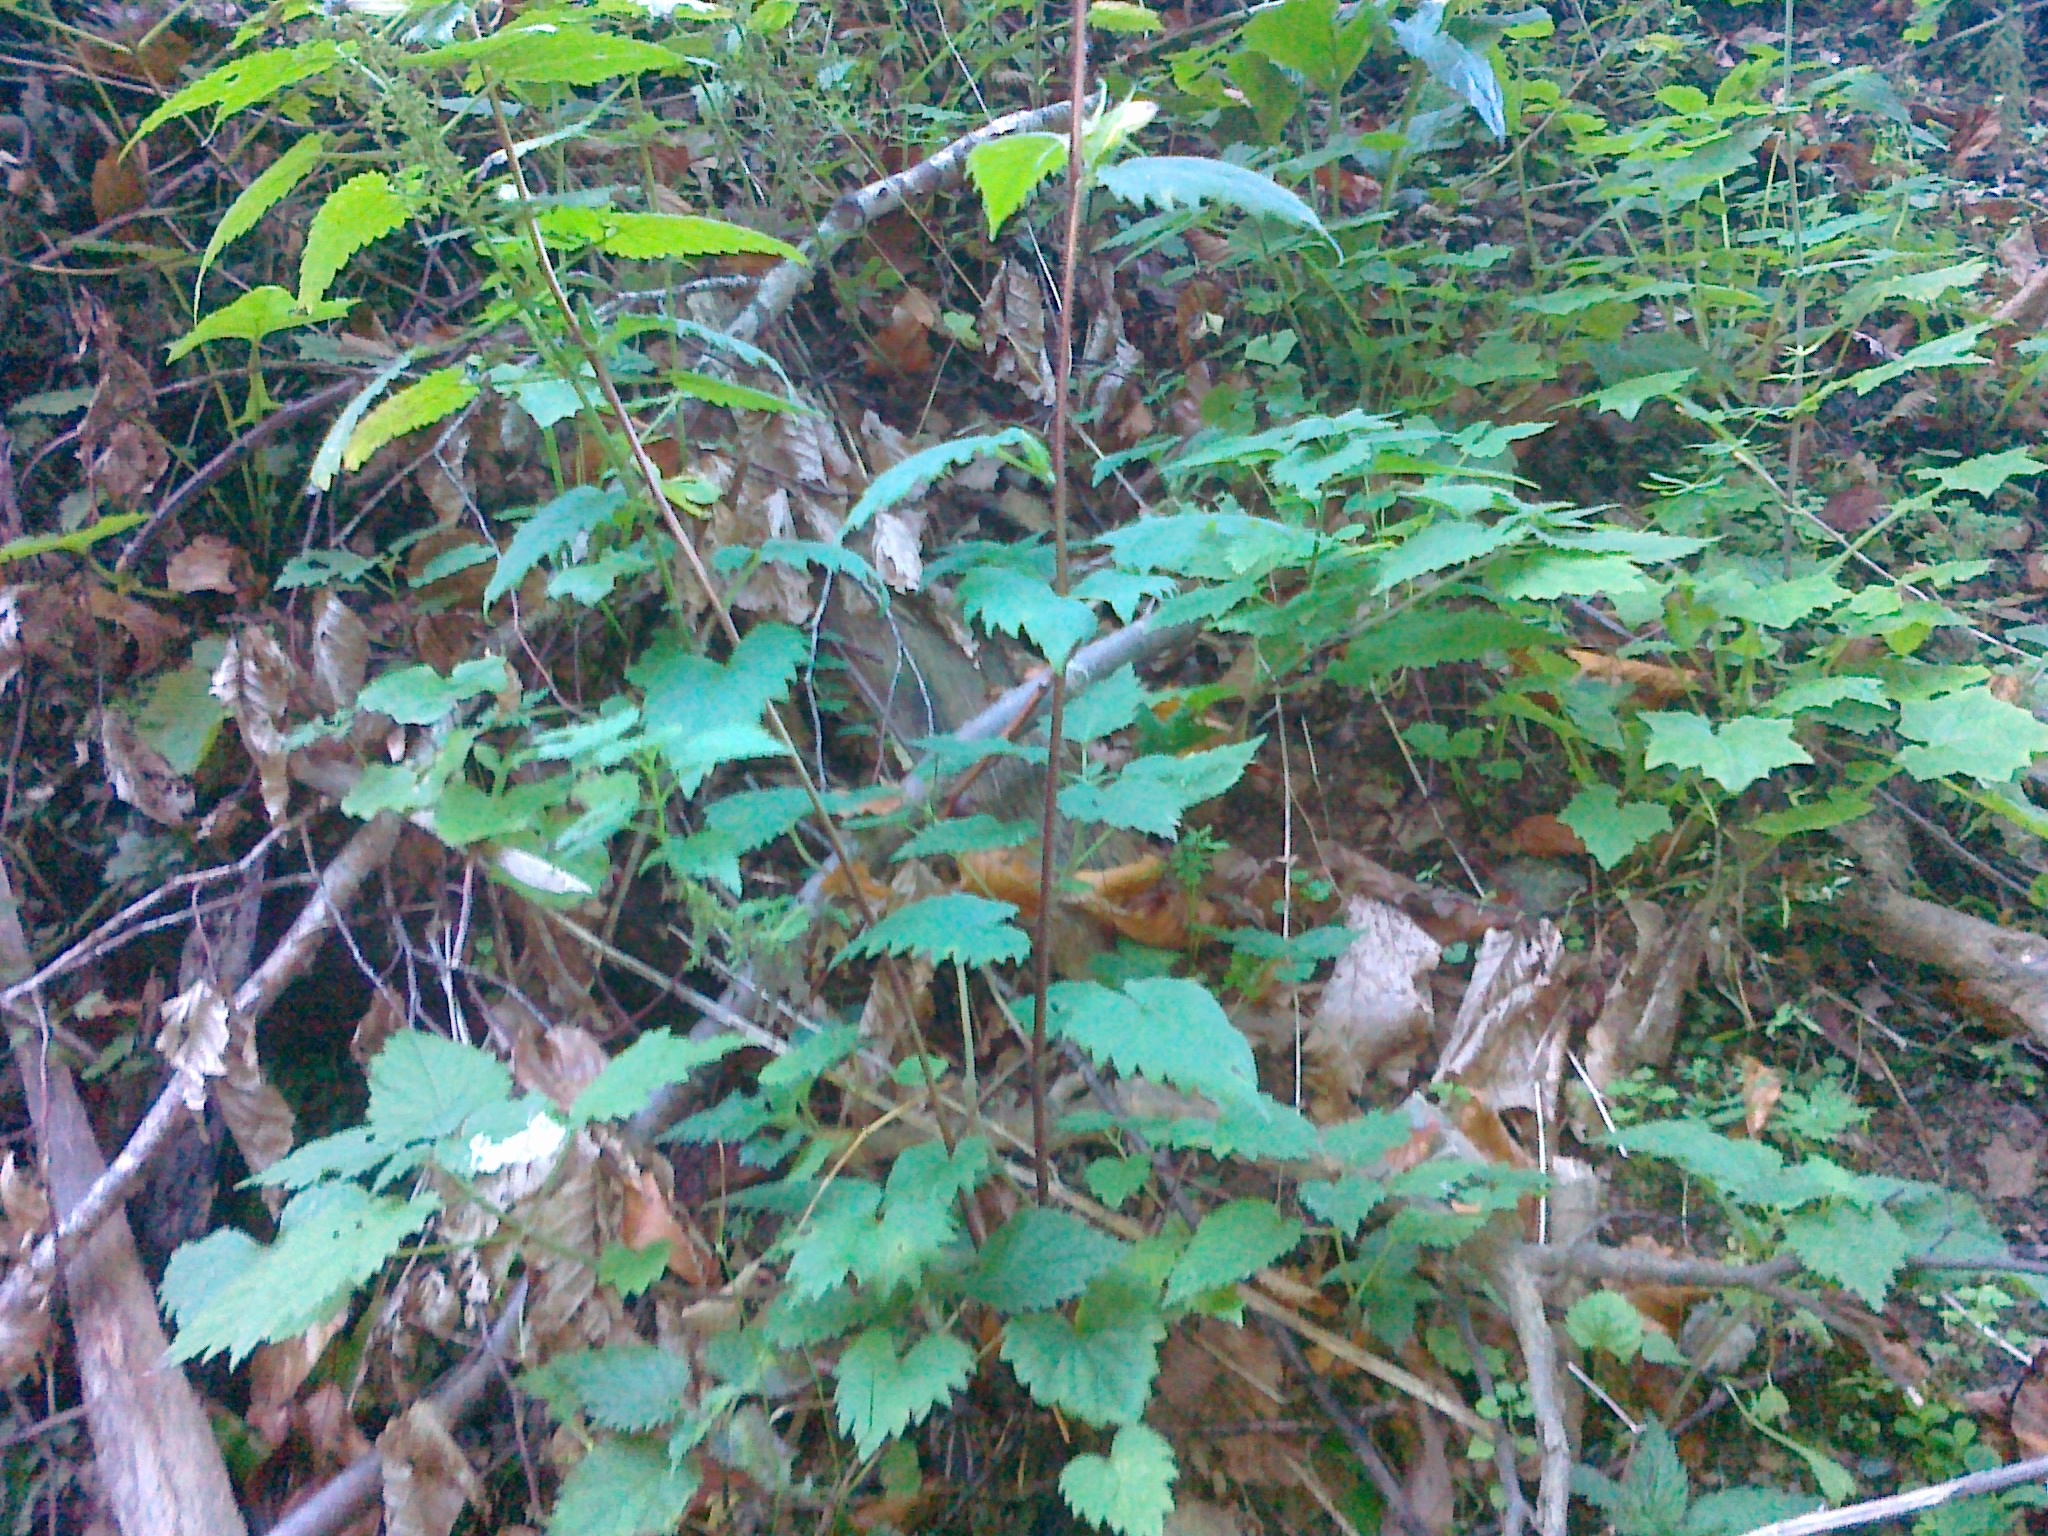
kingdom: Plantae
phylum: Tracheophyta
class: Magnoliopsida
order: Asterales
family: Campanulaceae
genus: Campanula
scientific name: Campanula trachelium
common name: Nettle-leaved bellflower
